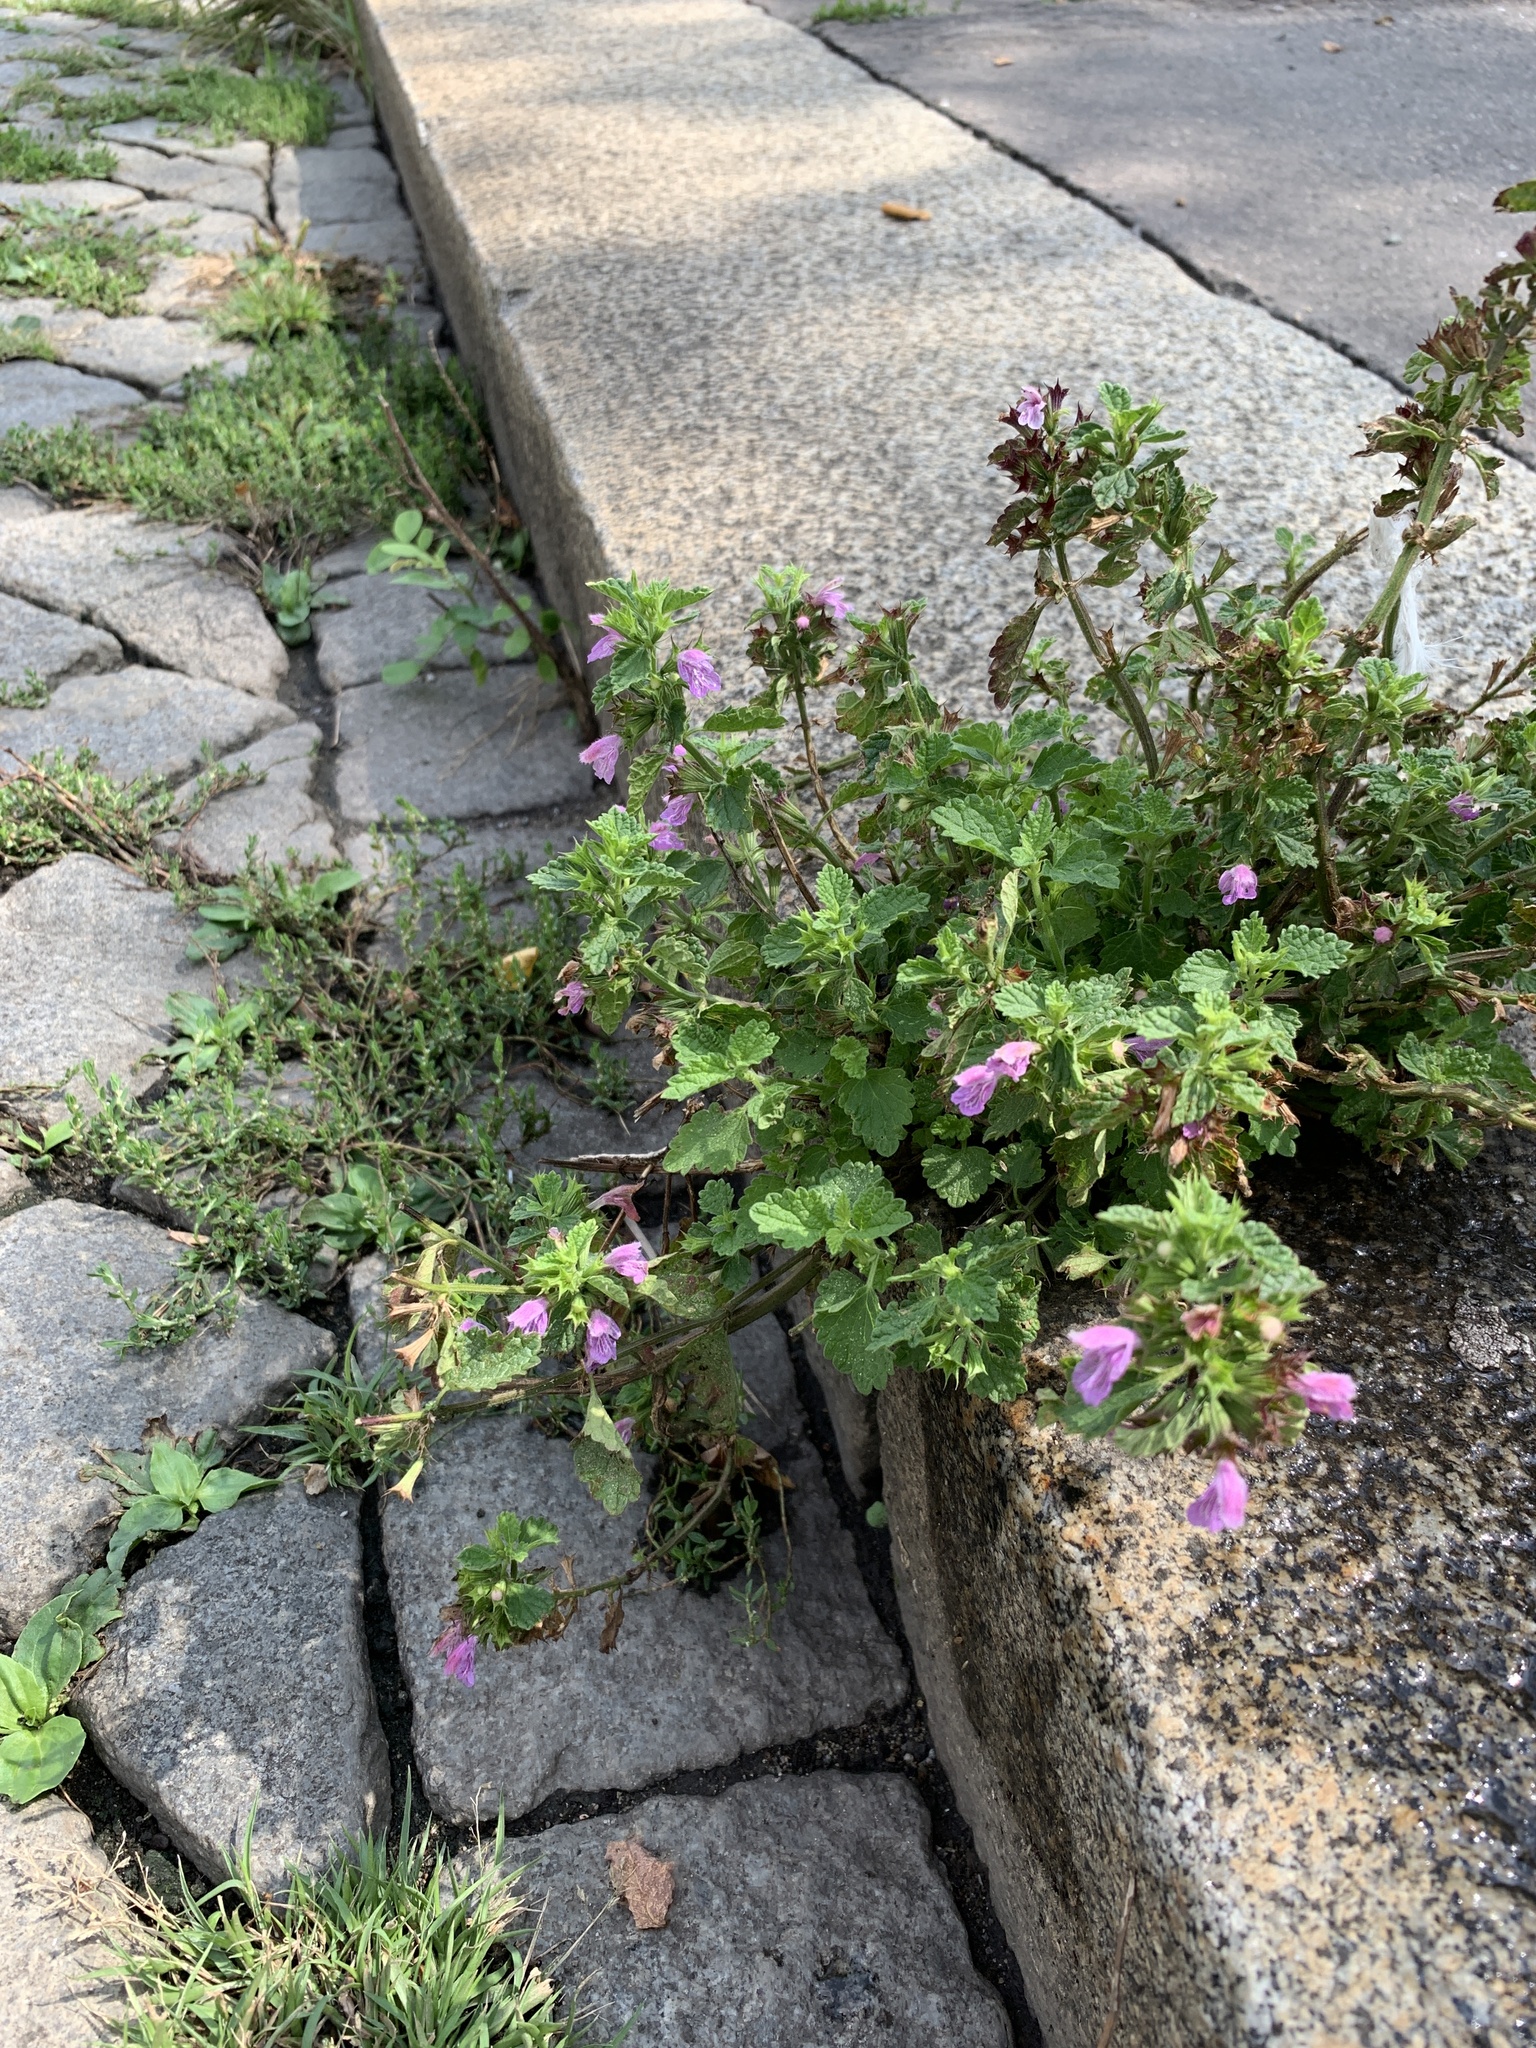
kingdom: Plantae
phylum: Tracheophyta
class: Magnoliopsida
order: Lamiales
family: Lamiaceae
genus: Ballota
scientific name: Ballota nigra
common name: Black horehound
